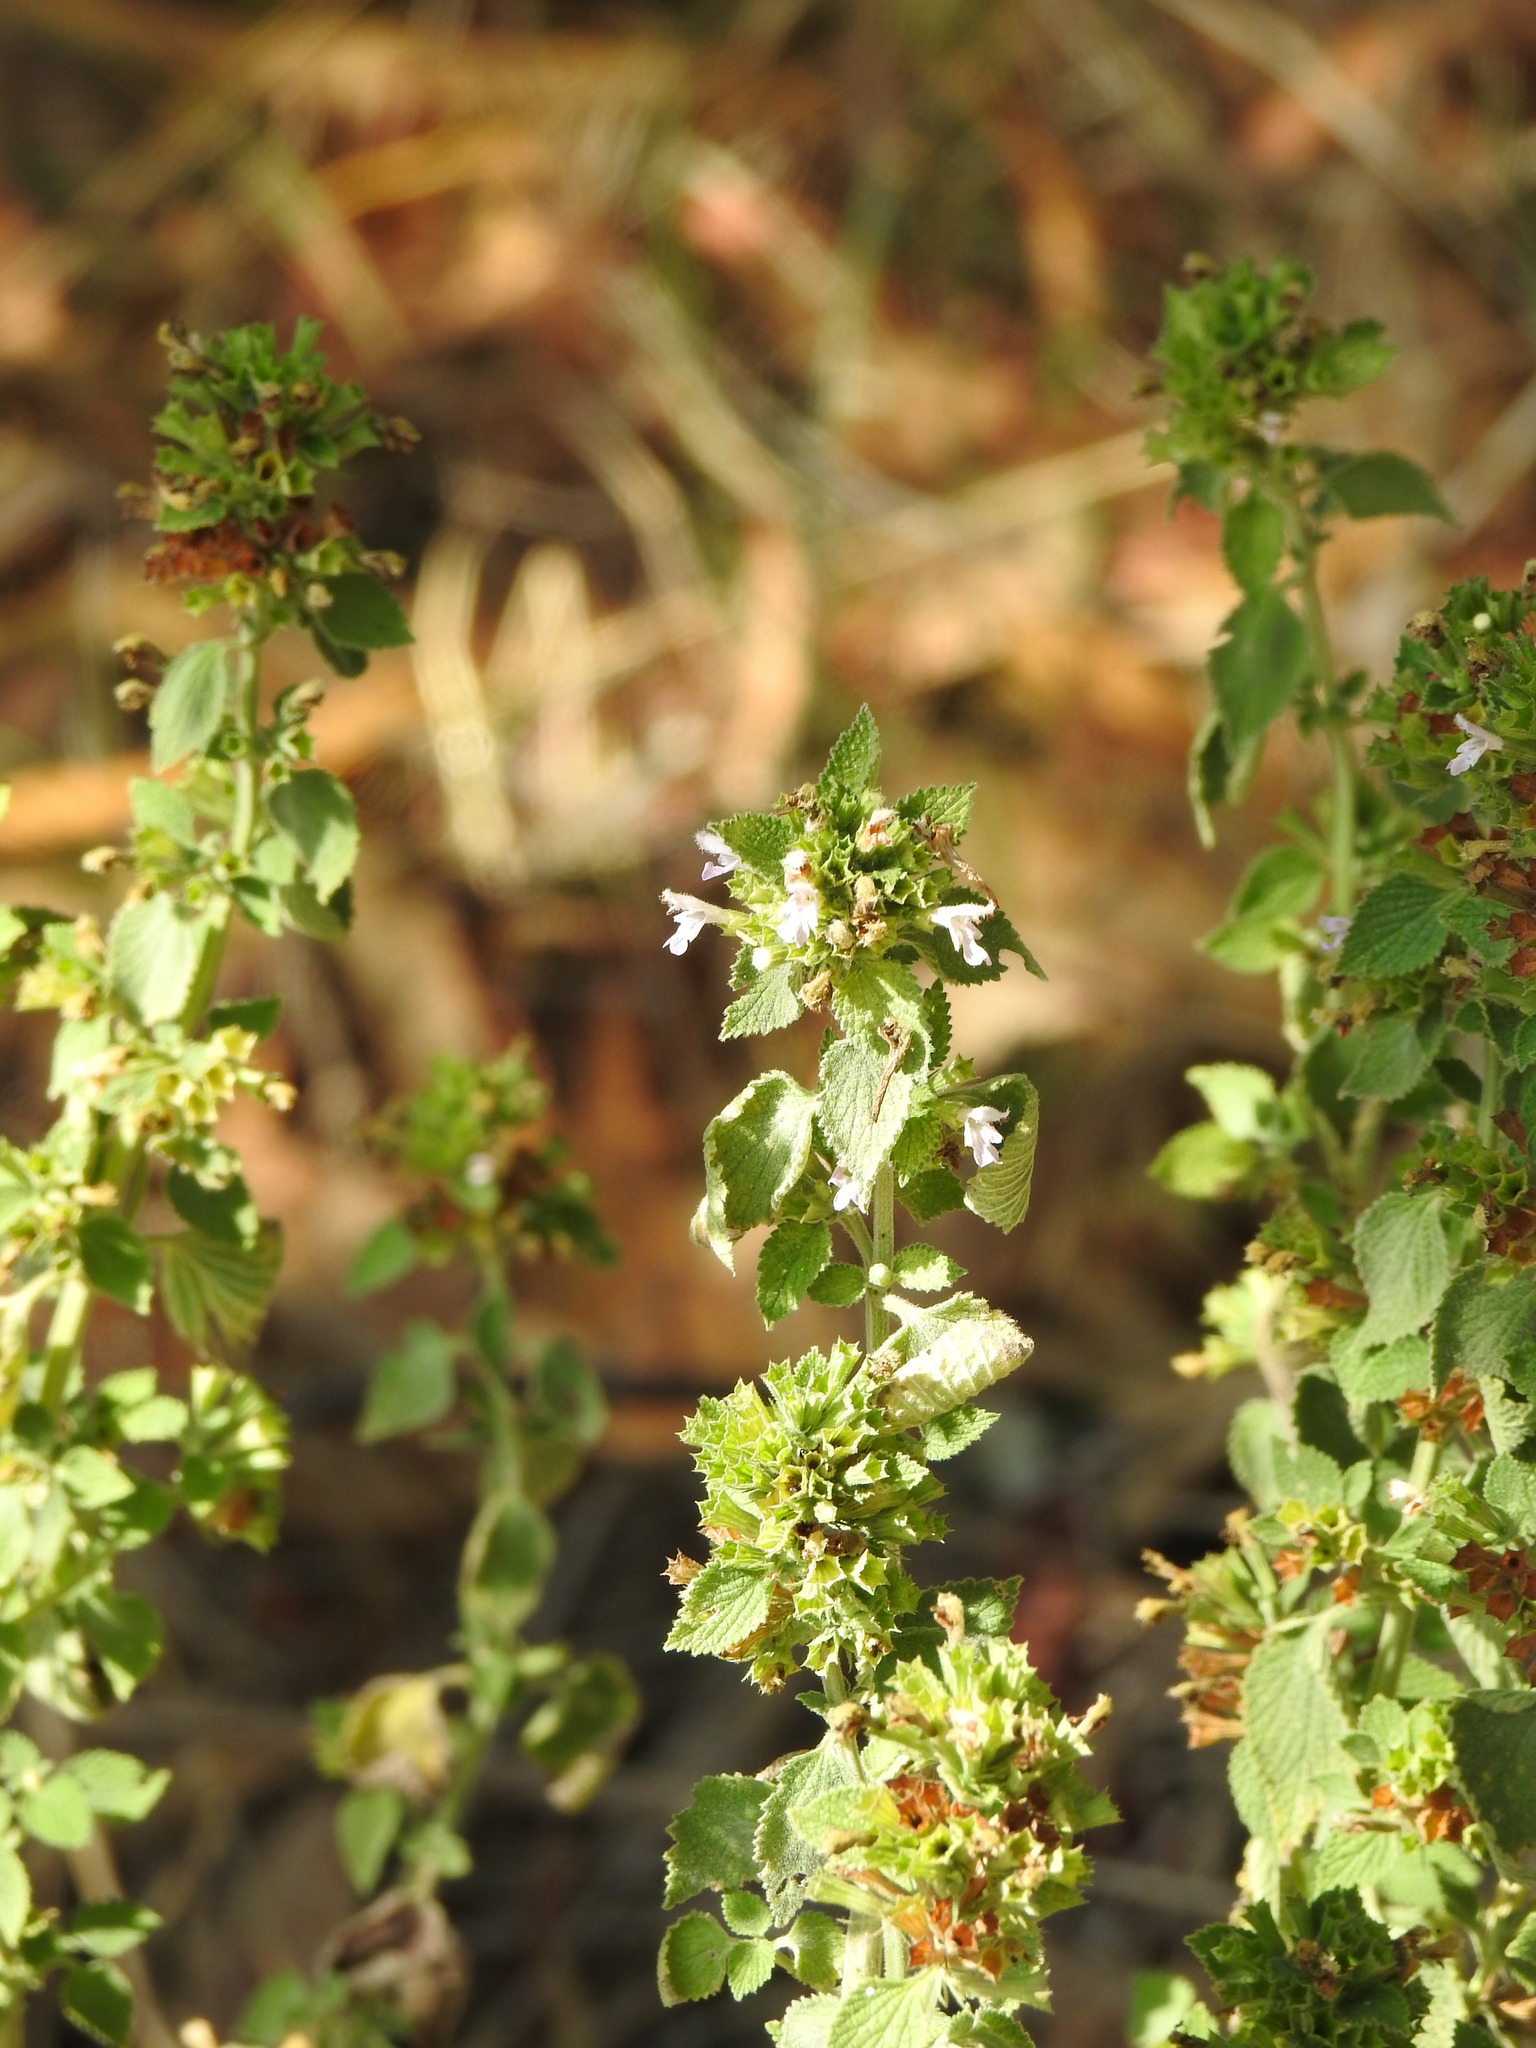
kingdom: Plantae
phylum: Tracheophyta
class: Magnoliopsida
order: Lamiales
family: Lamiaceae
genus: Ballota
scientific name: Ballota nigra
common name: Black horehound
